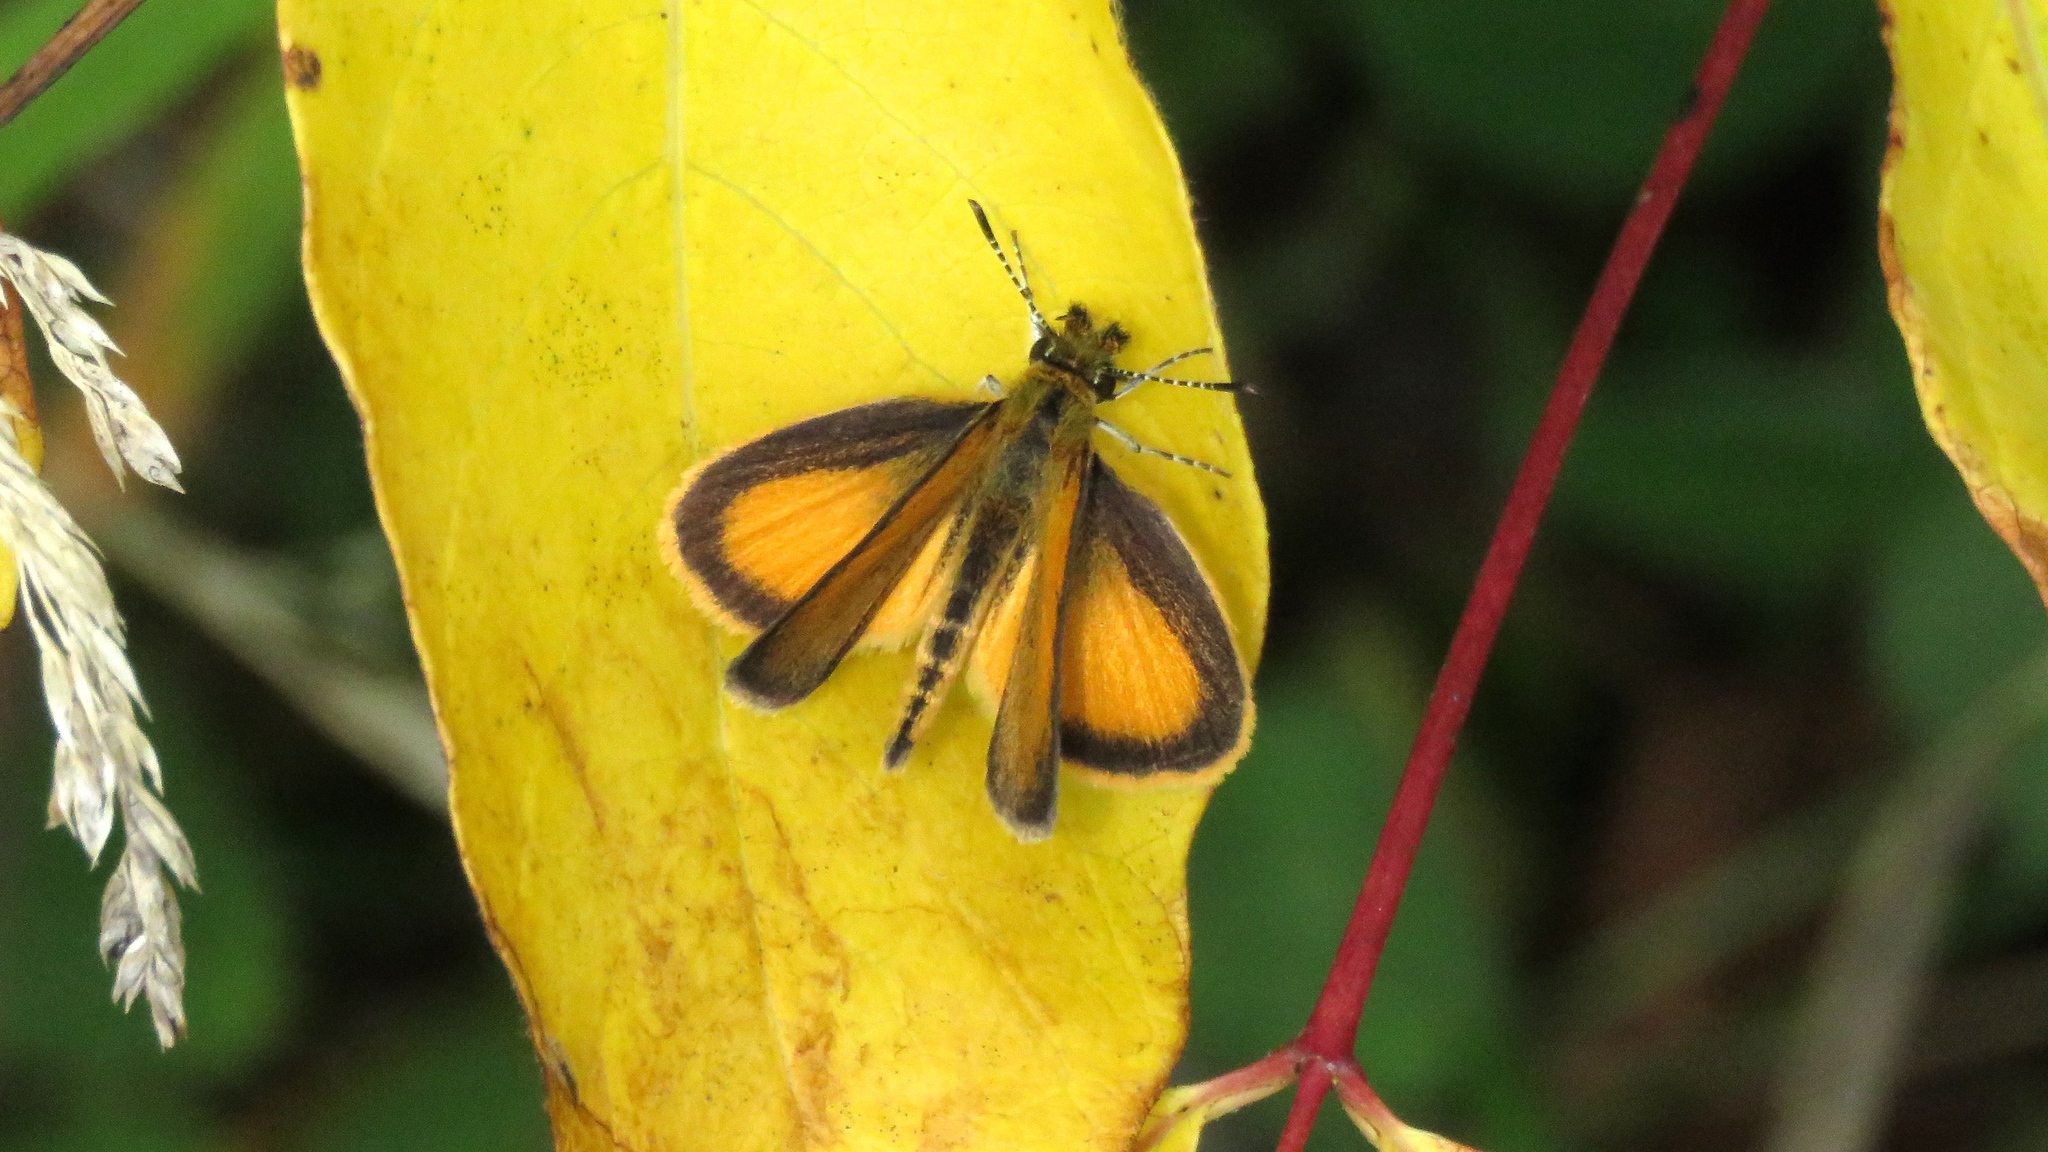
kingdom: Animalia
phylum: Arthropoda
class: Insecta
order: Lepidoptera
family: Hesperiidae
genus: Ancyloxypha
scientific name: Ancyloxypha numitor
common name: Least skipper
